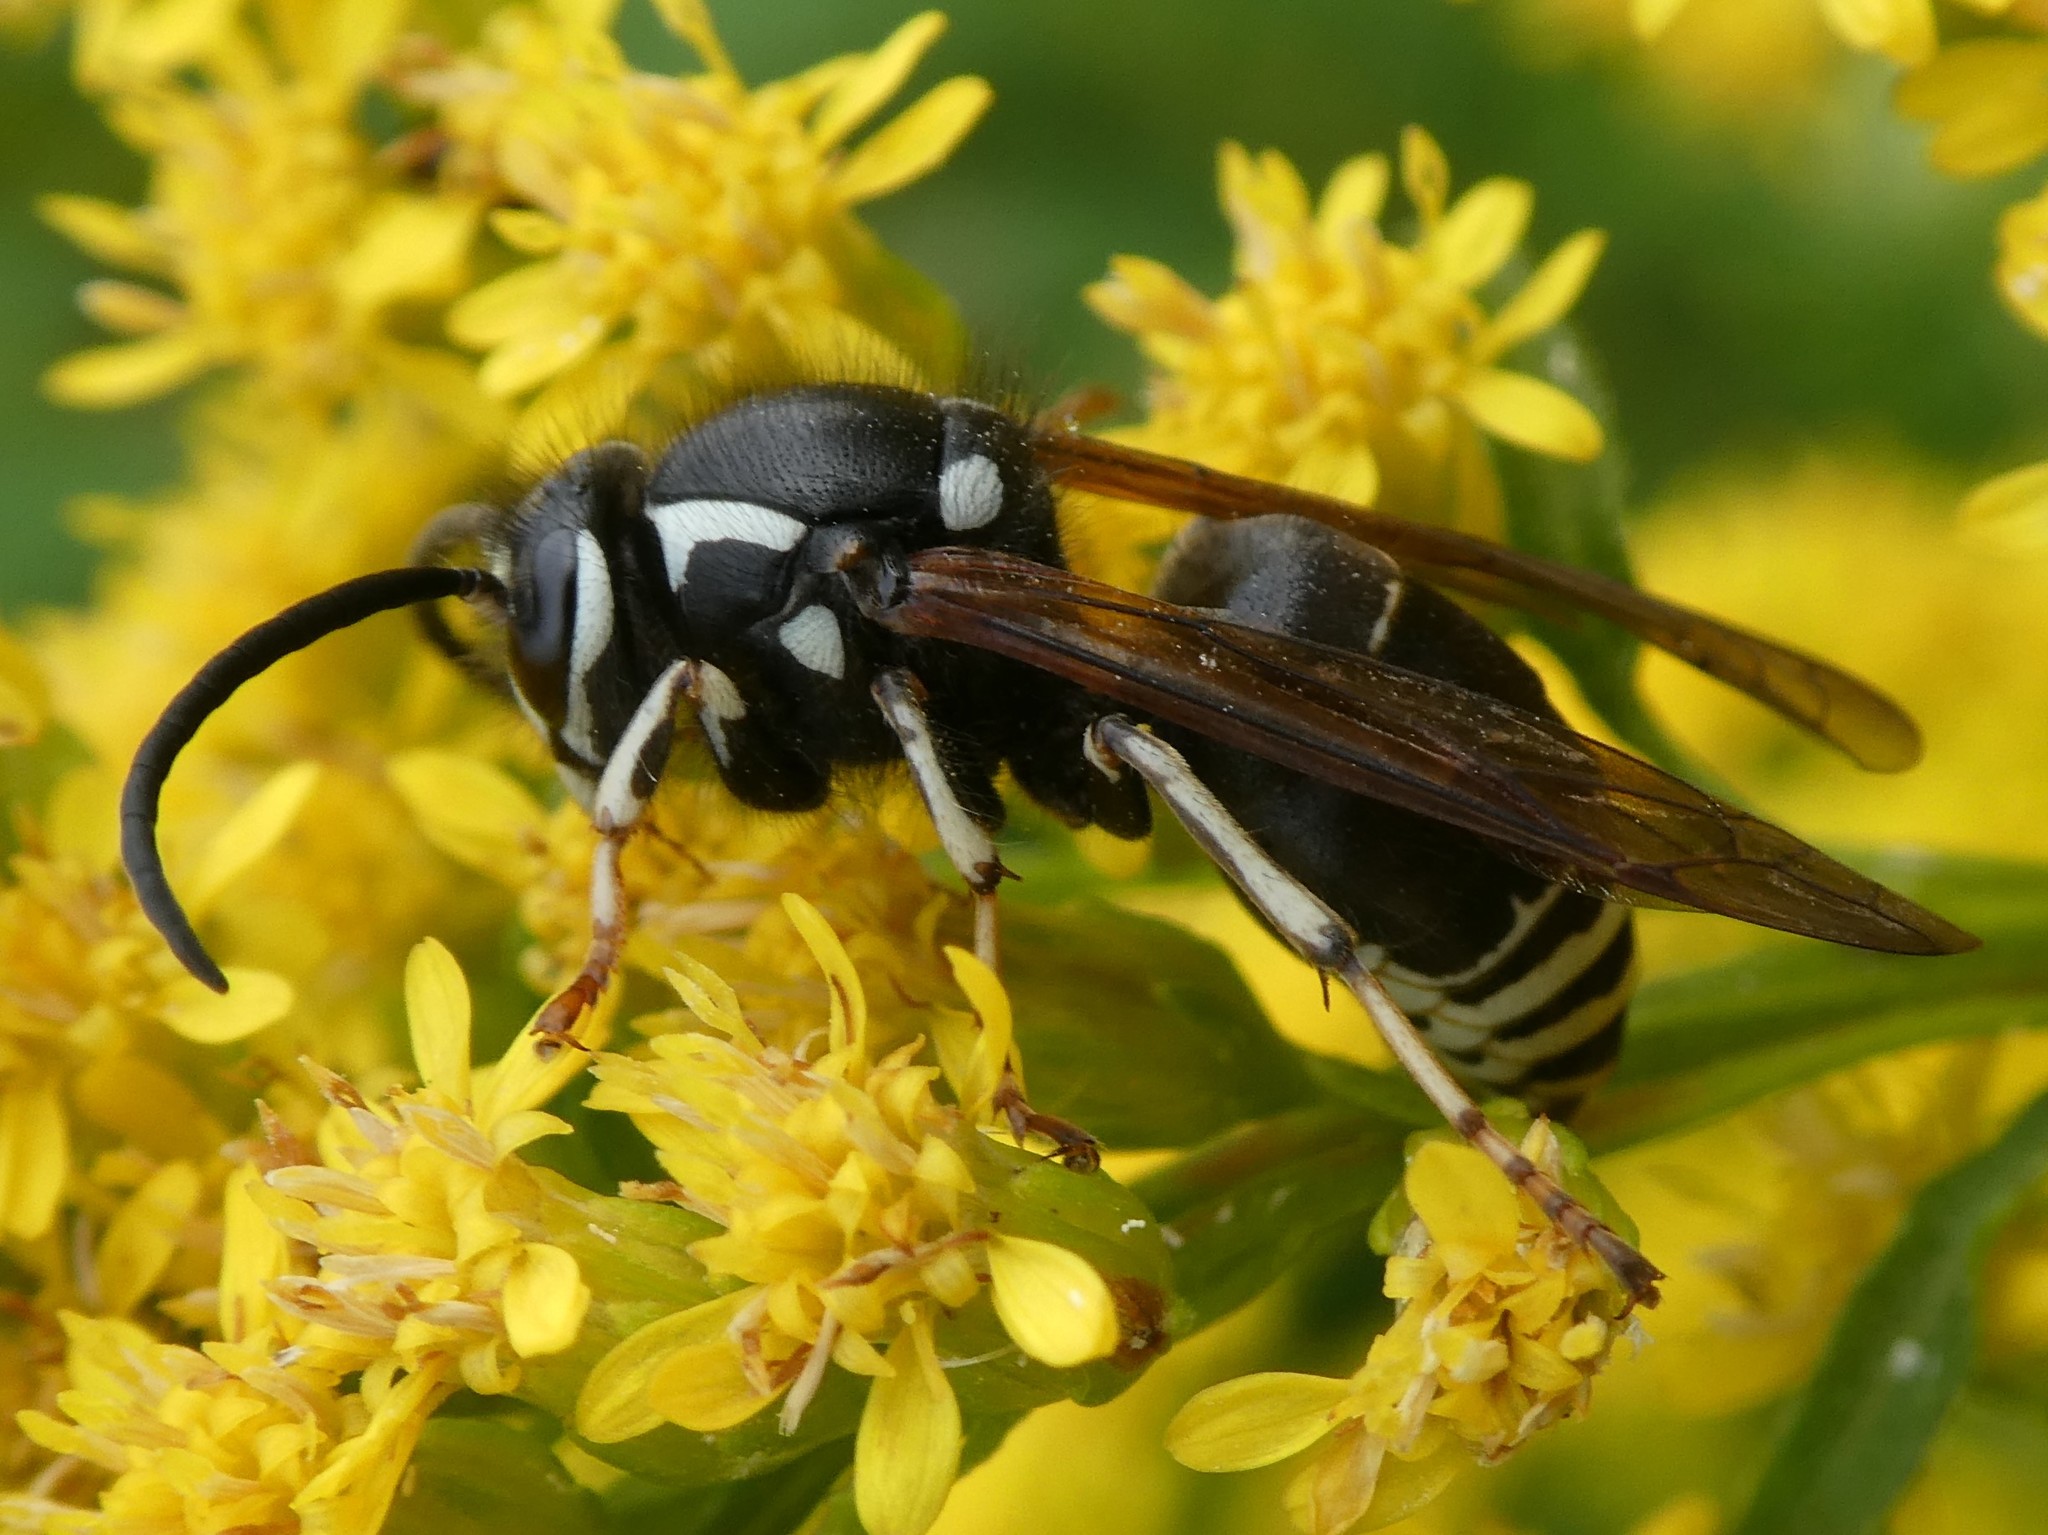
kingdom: Animalia
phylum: Arthropoda
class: Insecta
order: Hymenoptera
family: Vespidae
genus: Dolichovespula
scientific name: Dolichovespula adulterina
